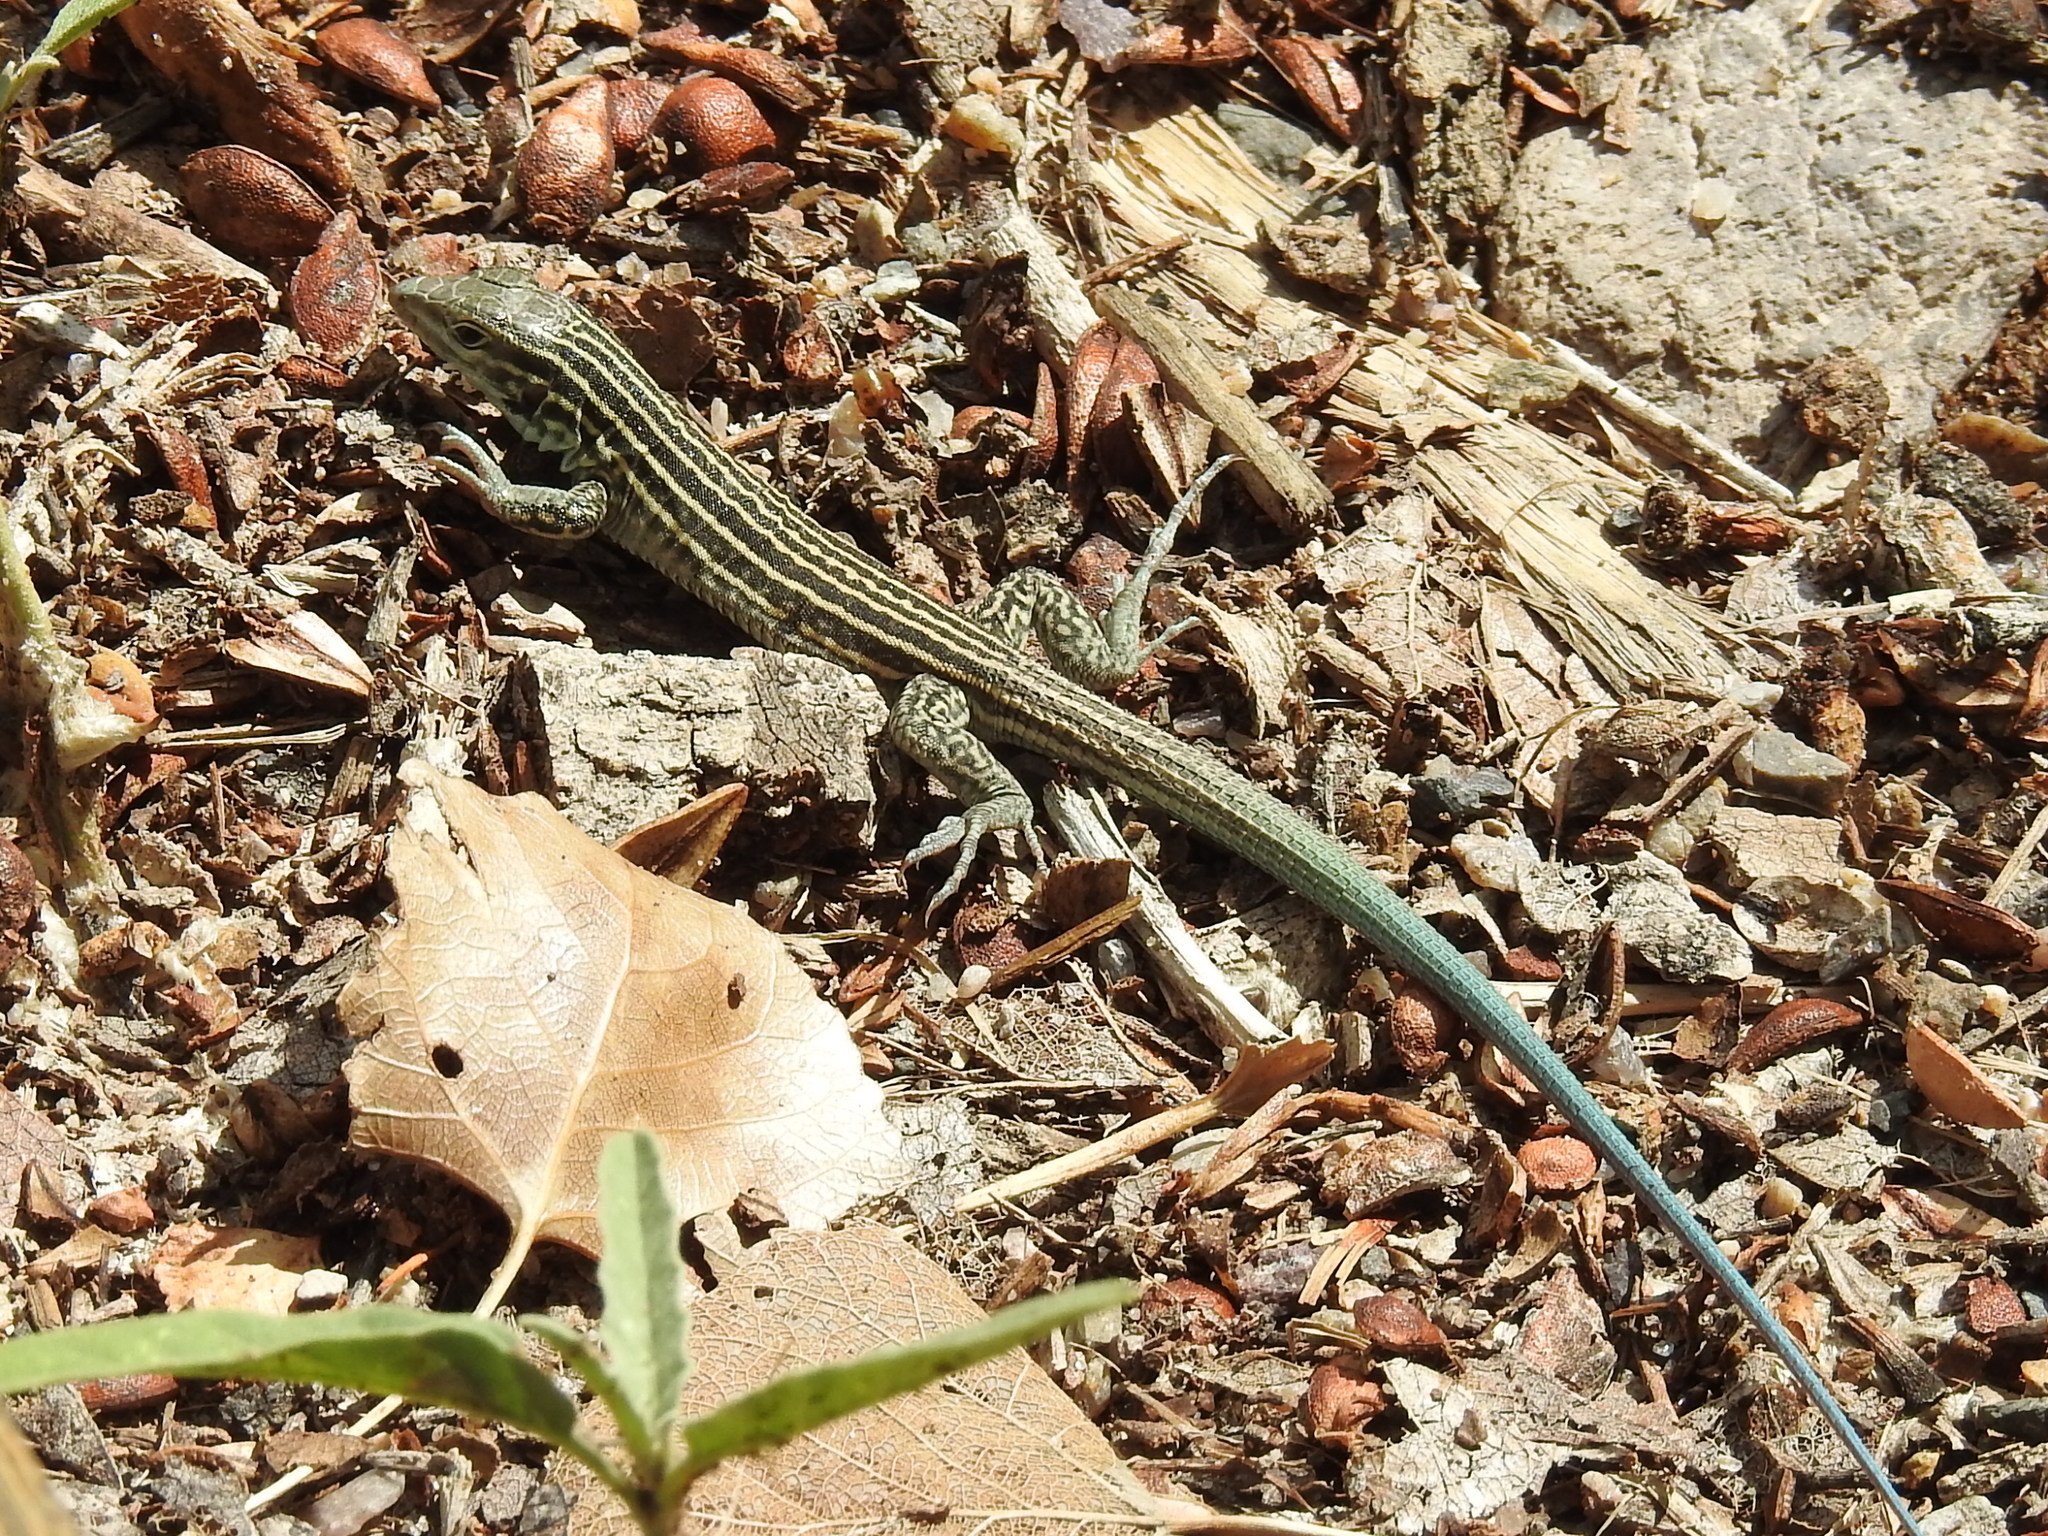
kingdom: Animalia
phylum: Chordata
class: Squamata
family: Teiidae
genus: Aspidoscelis
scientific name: Aspidoscelis neomexicanus
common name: New mexico whiptail
